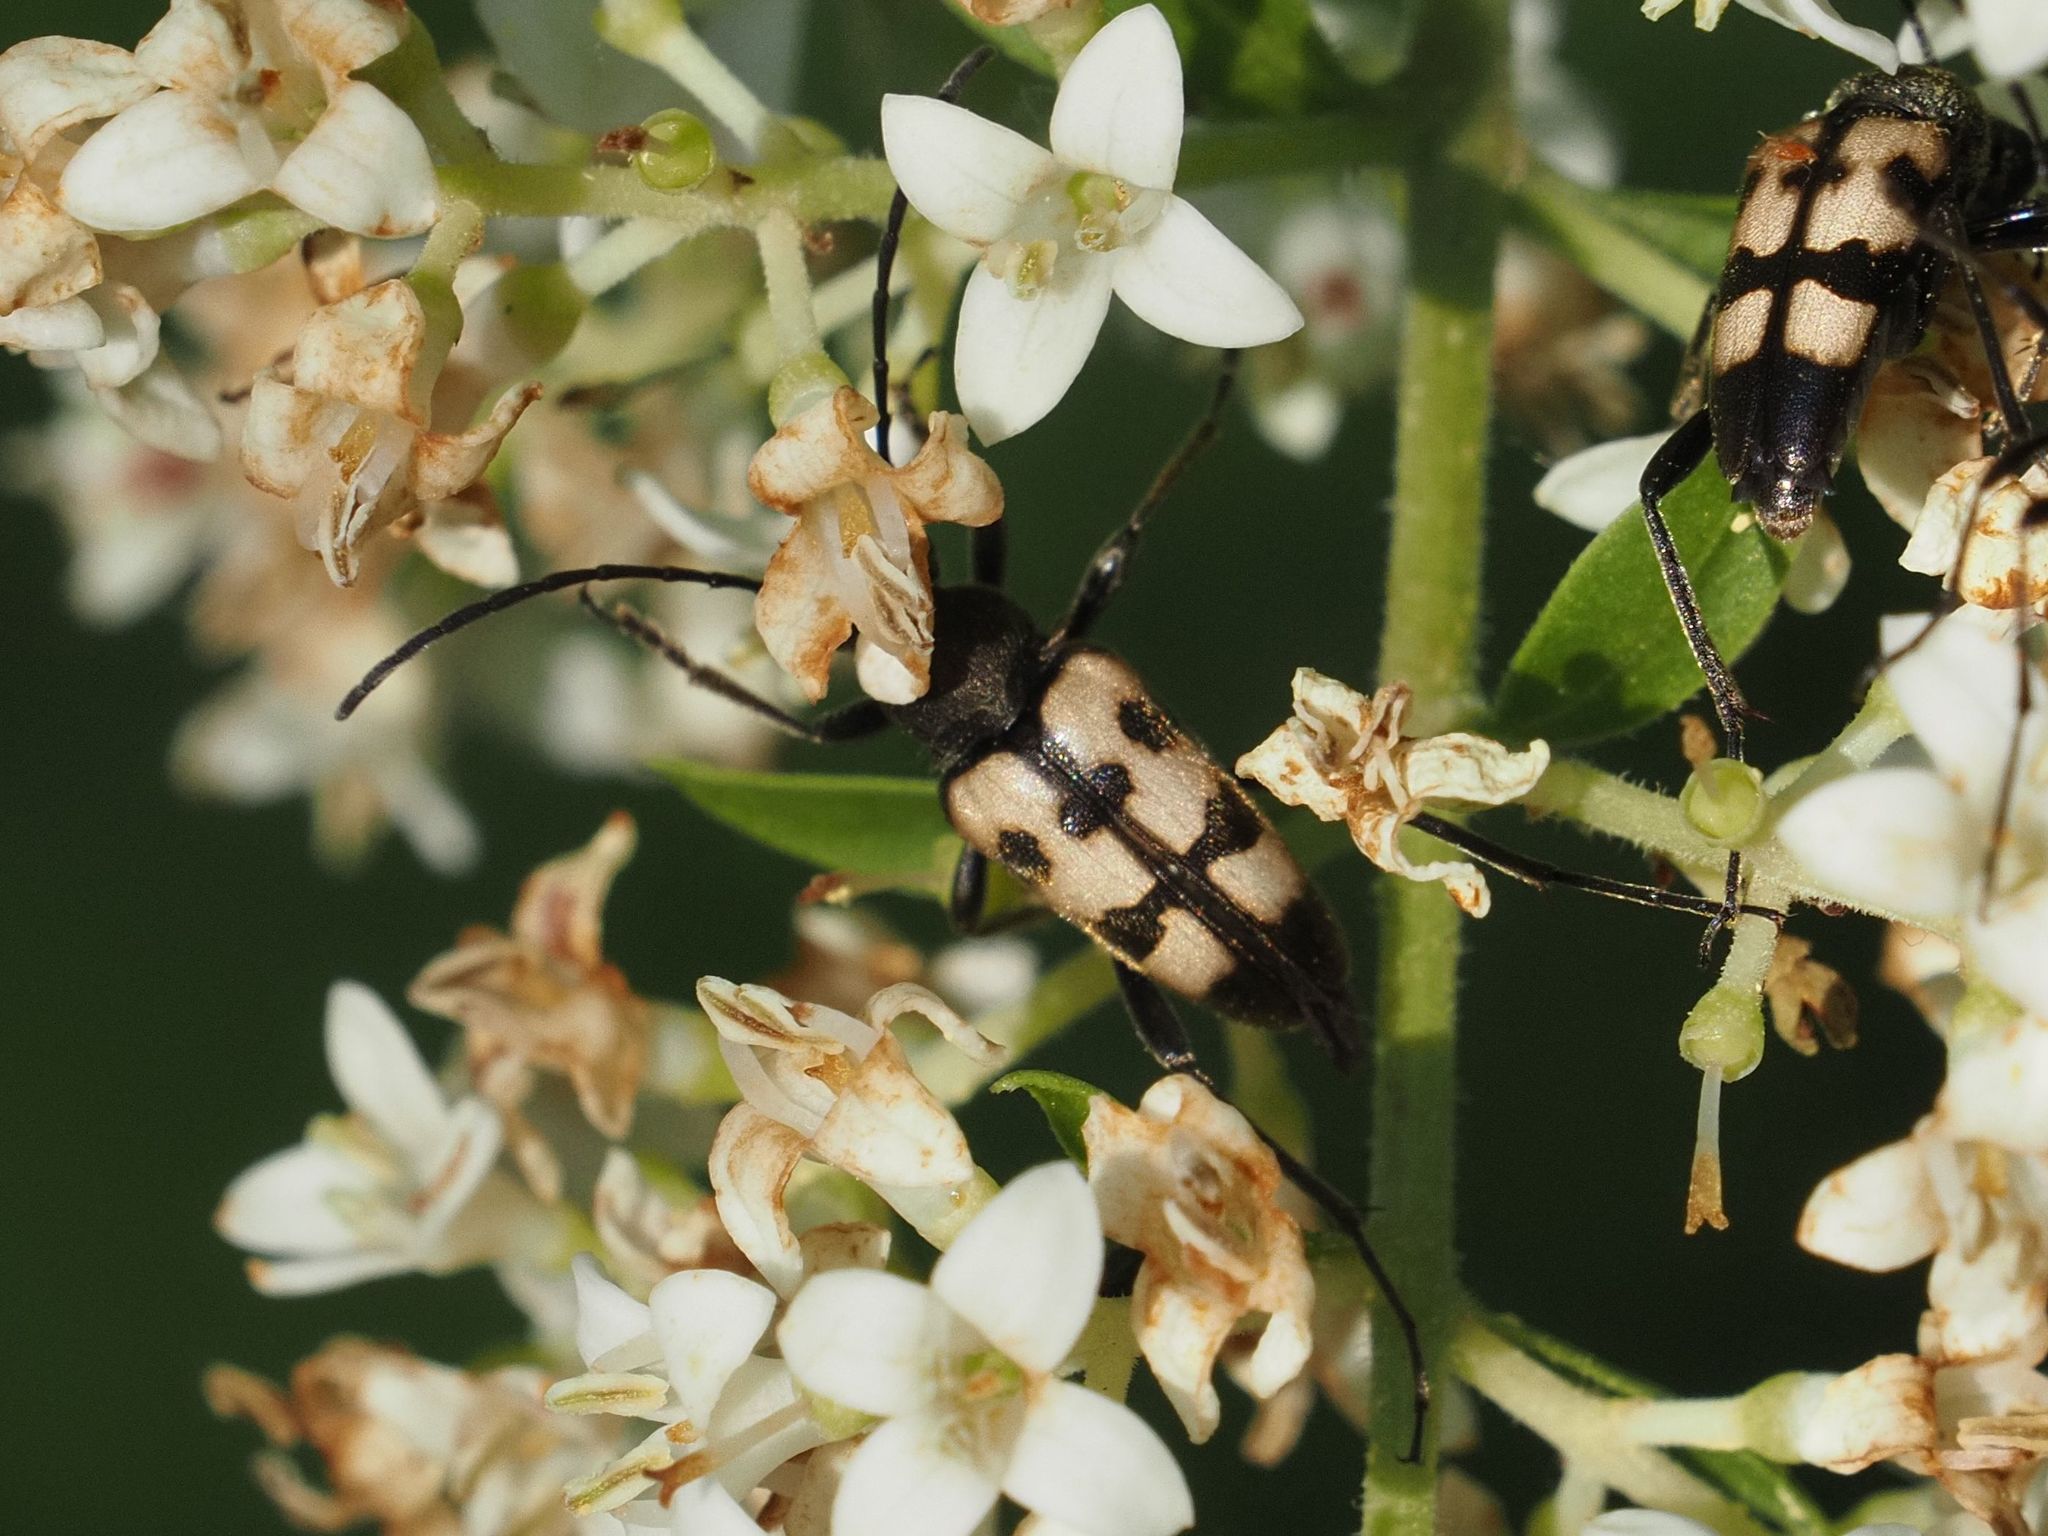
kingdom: Animalia
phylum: Arthropoda
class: Insecta
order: Coleoptera
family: Cerambycidae
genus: Pachytodes
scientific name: Pachytodes
